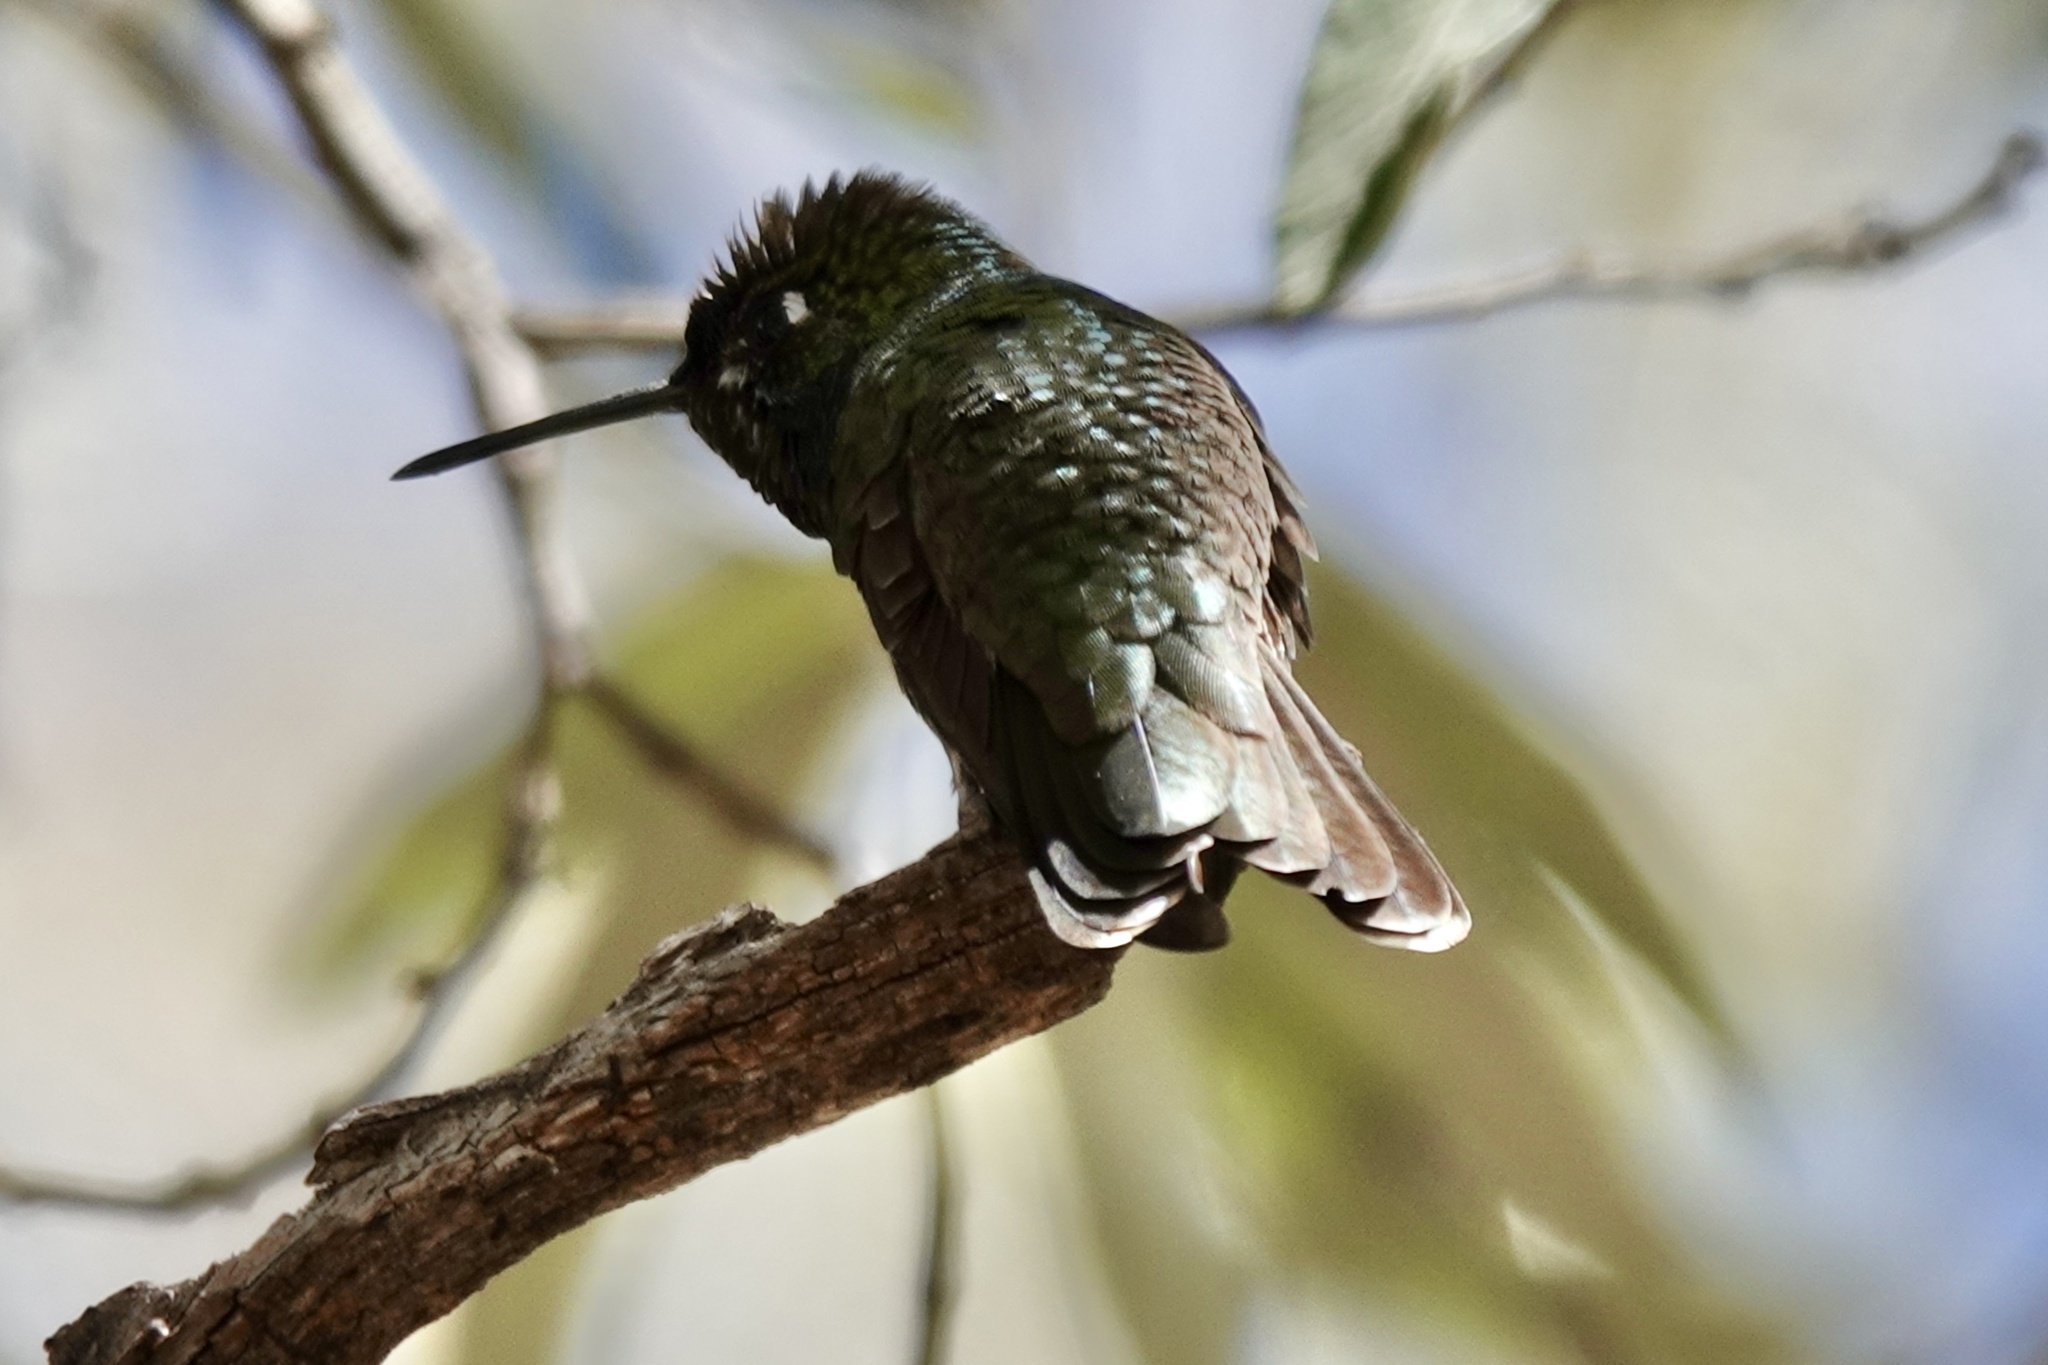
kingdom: Animalia
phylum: Chordata
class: Aves
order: Apodiformes
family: Trochilidae
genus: Eugenes
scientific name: Eugenes fulgens
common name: Magnificent hummingbird
